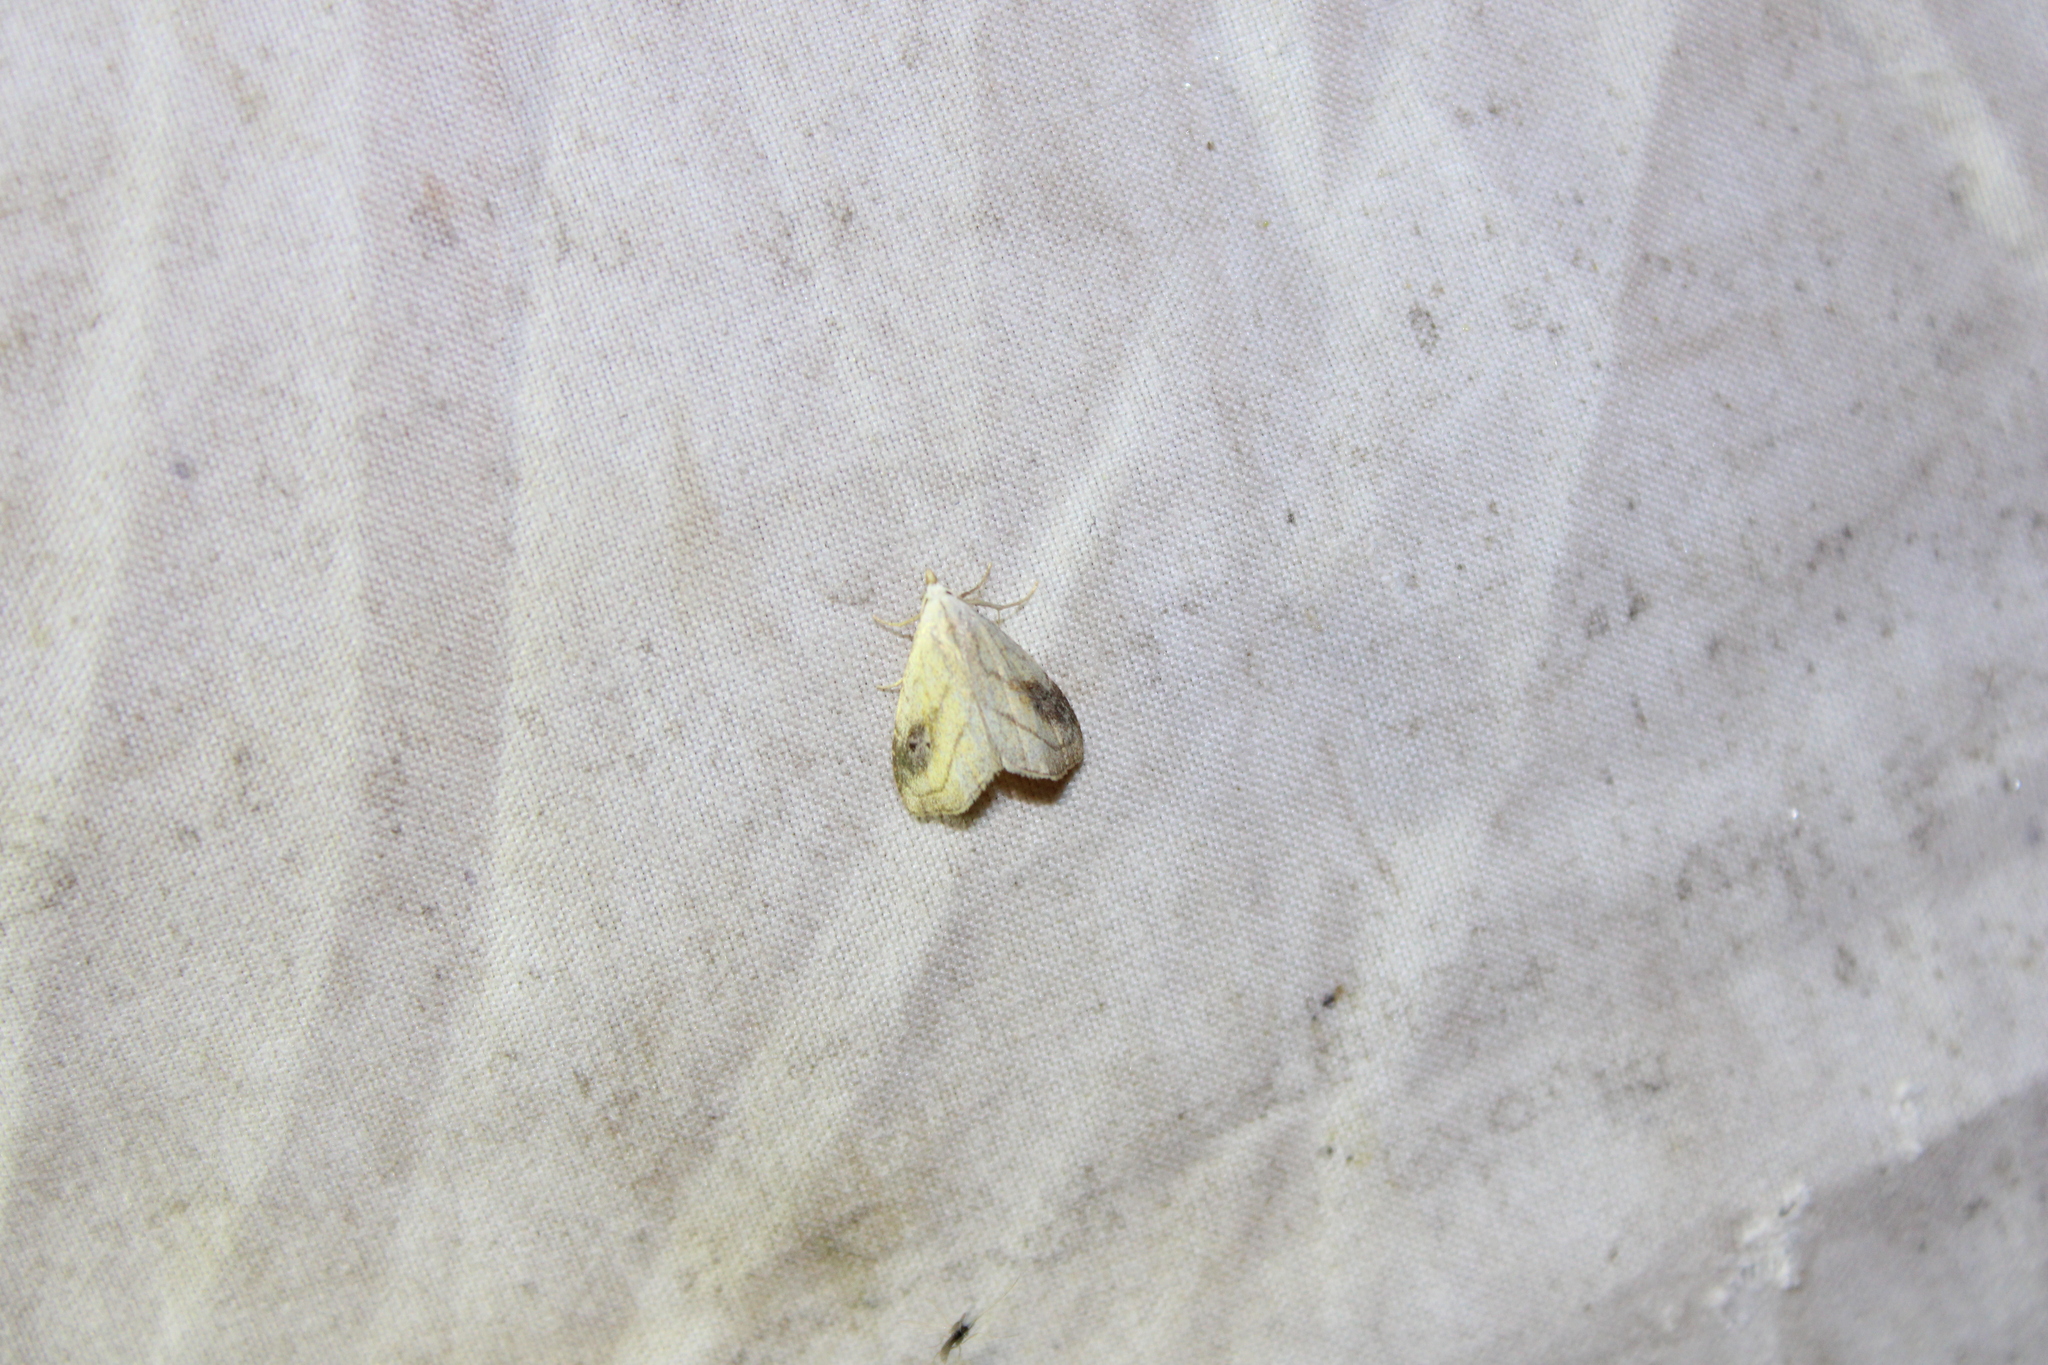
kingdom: Animalia
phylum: Arthropoda
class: Insecta
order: Lepidoptera
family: Erebidae
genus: Rivula
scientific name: Rivula propinqualis
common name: Spotted grass moth
